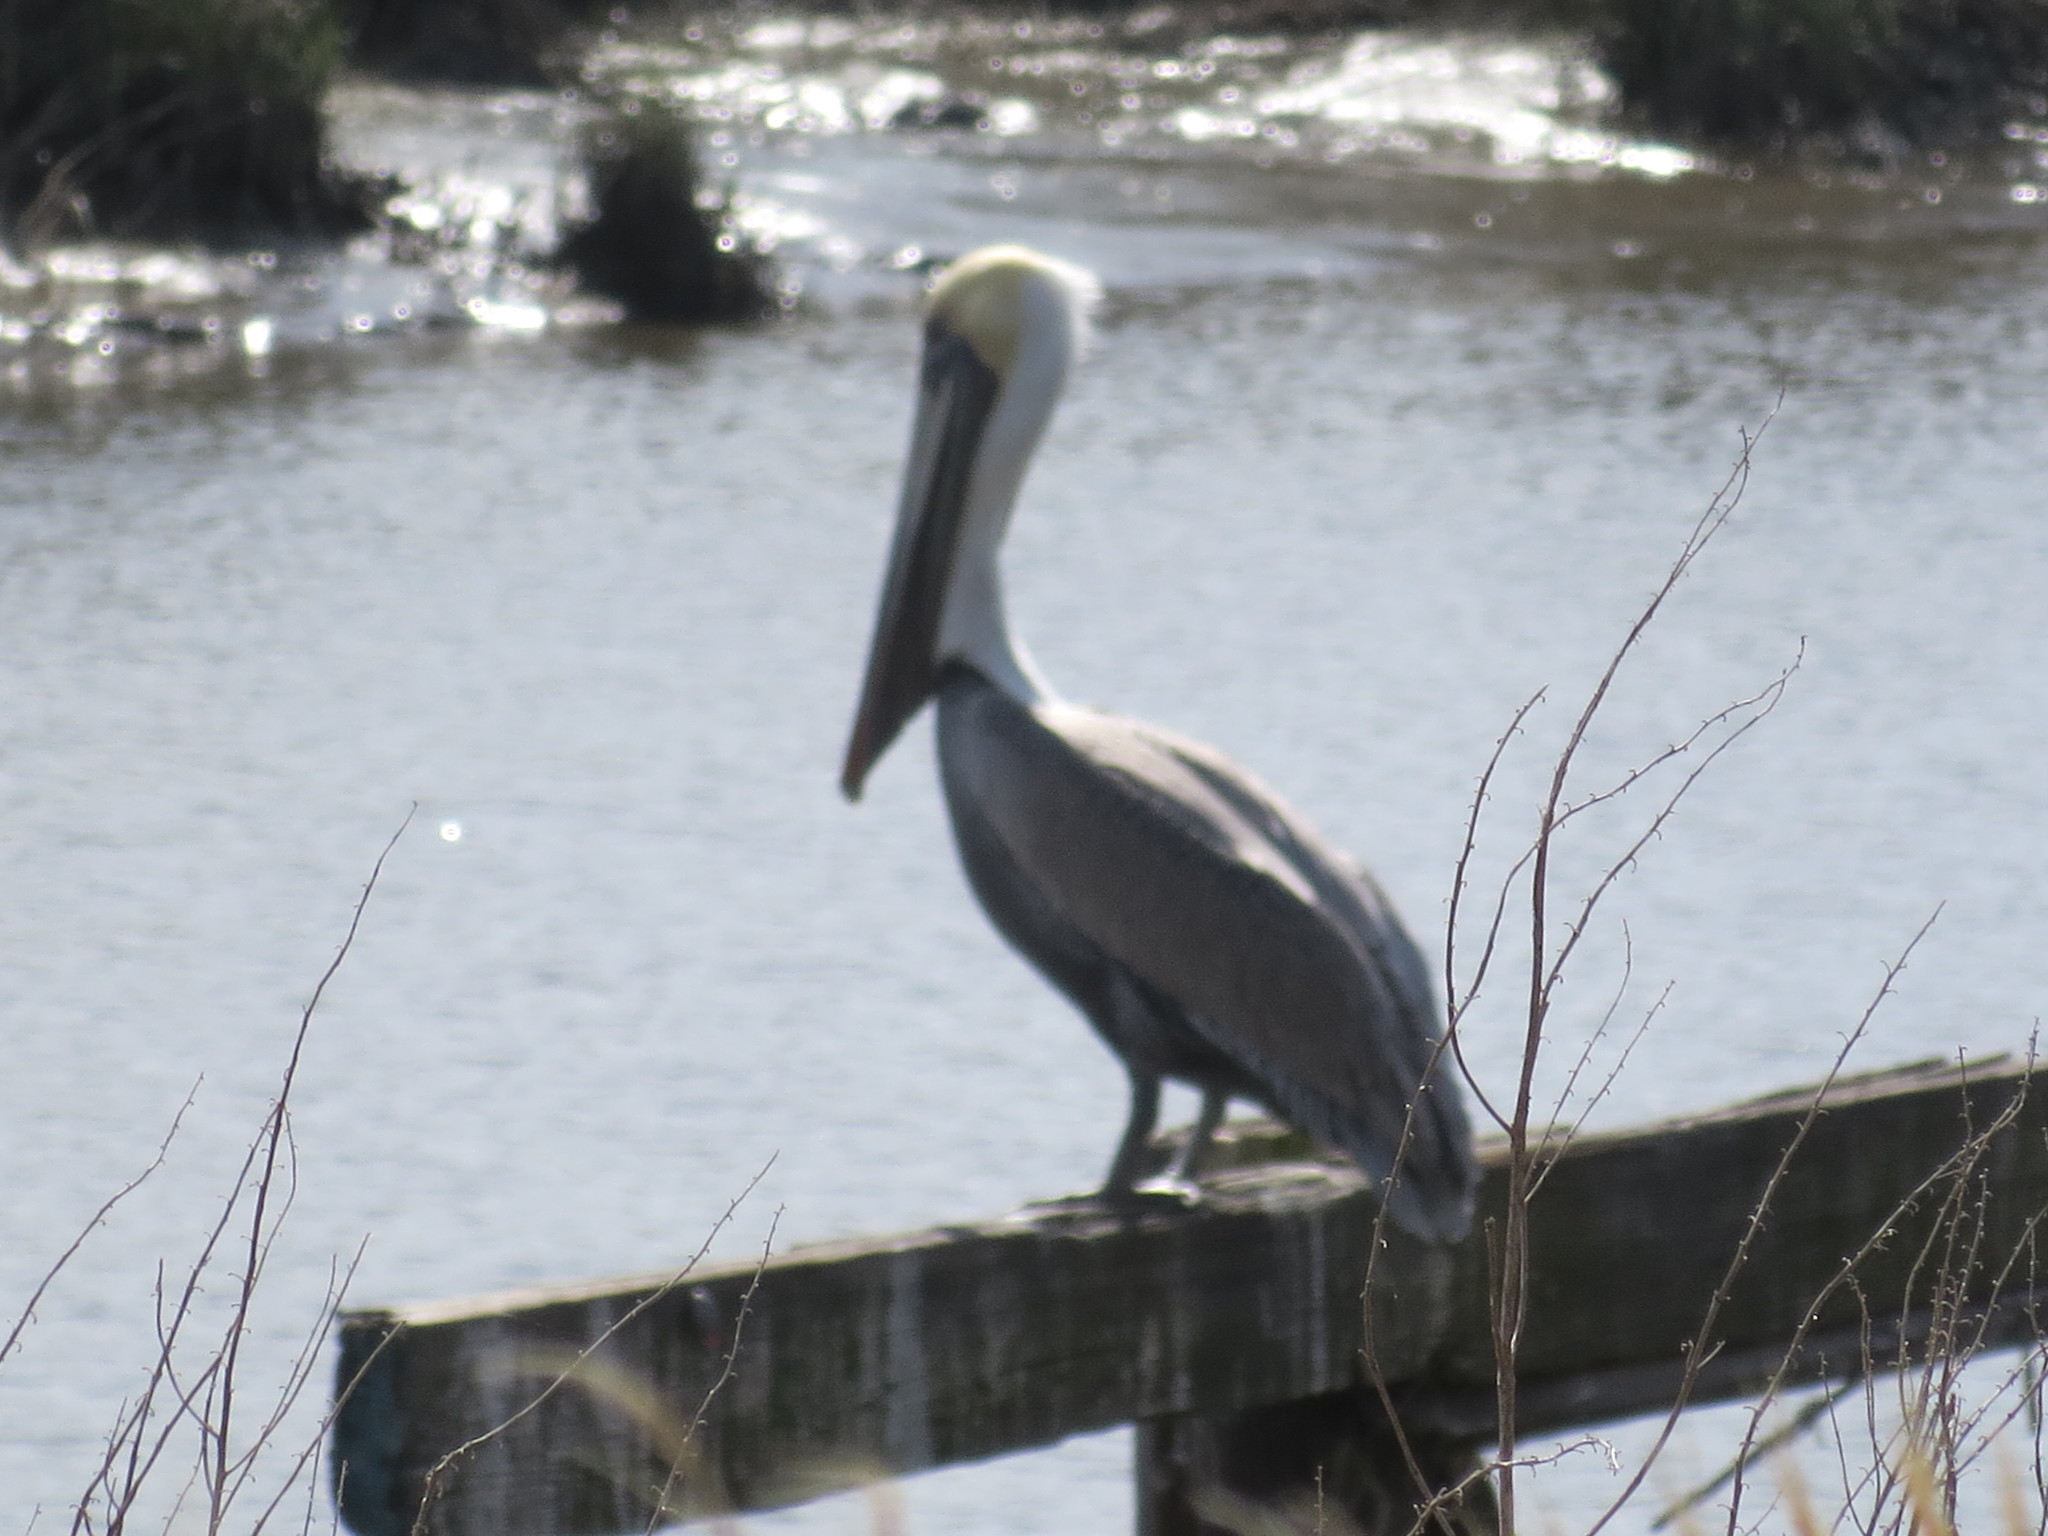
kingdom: Animalia
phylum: Chordata
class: Aves
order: Pelecaniformes
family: Pelecanidae
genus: Pelecanus
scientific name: Pelecanus occidentalis
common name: Brown pelican
